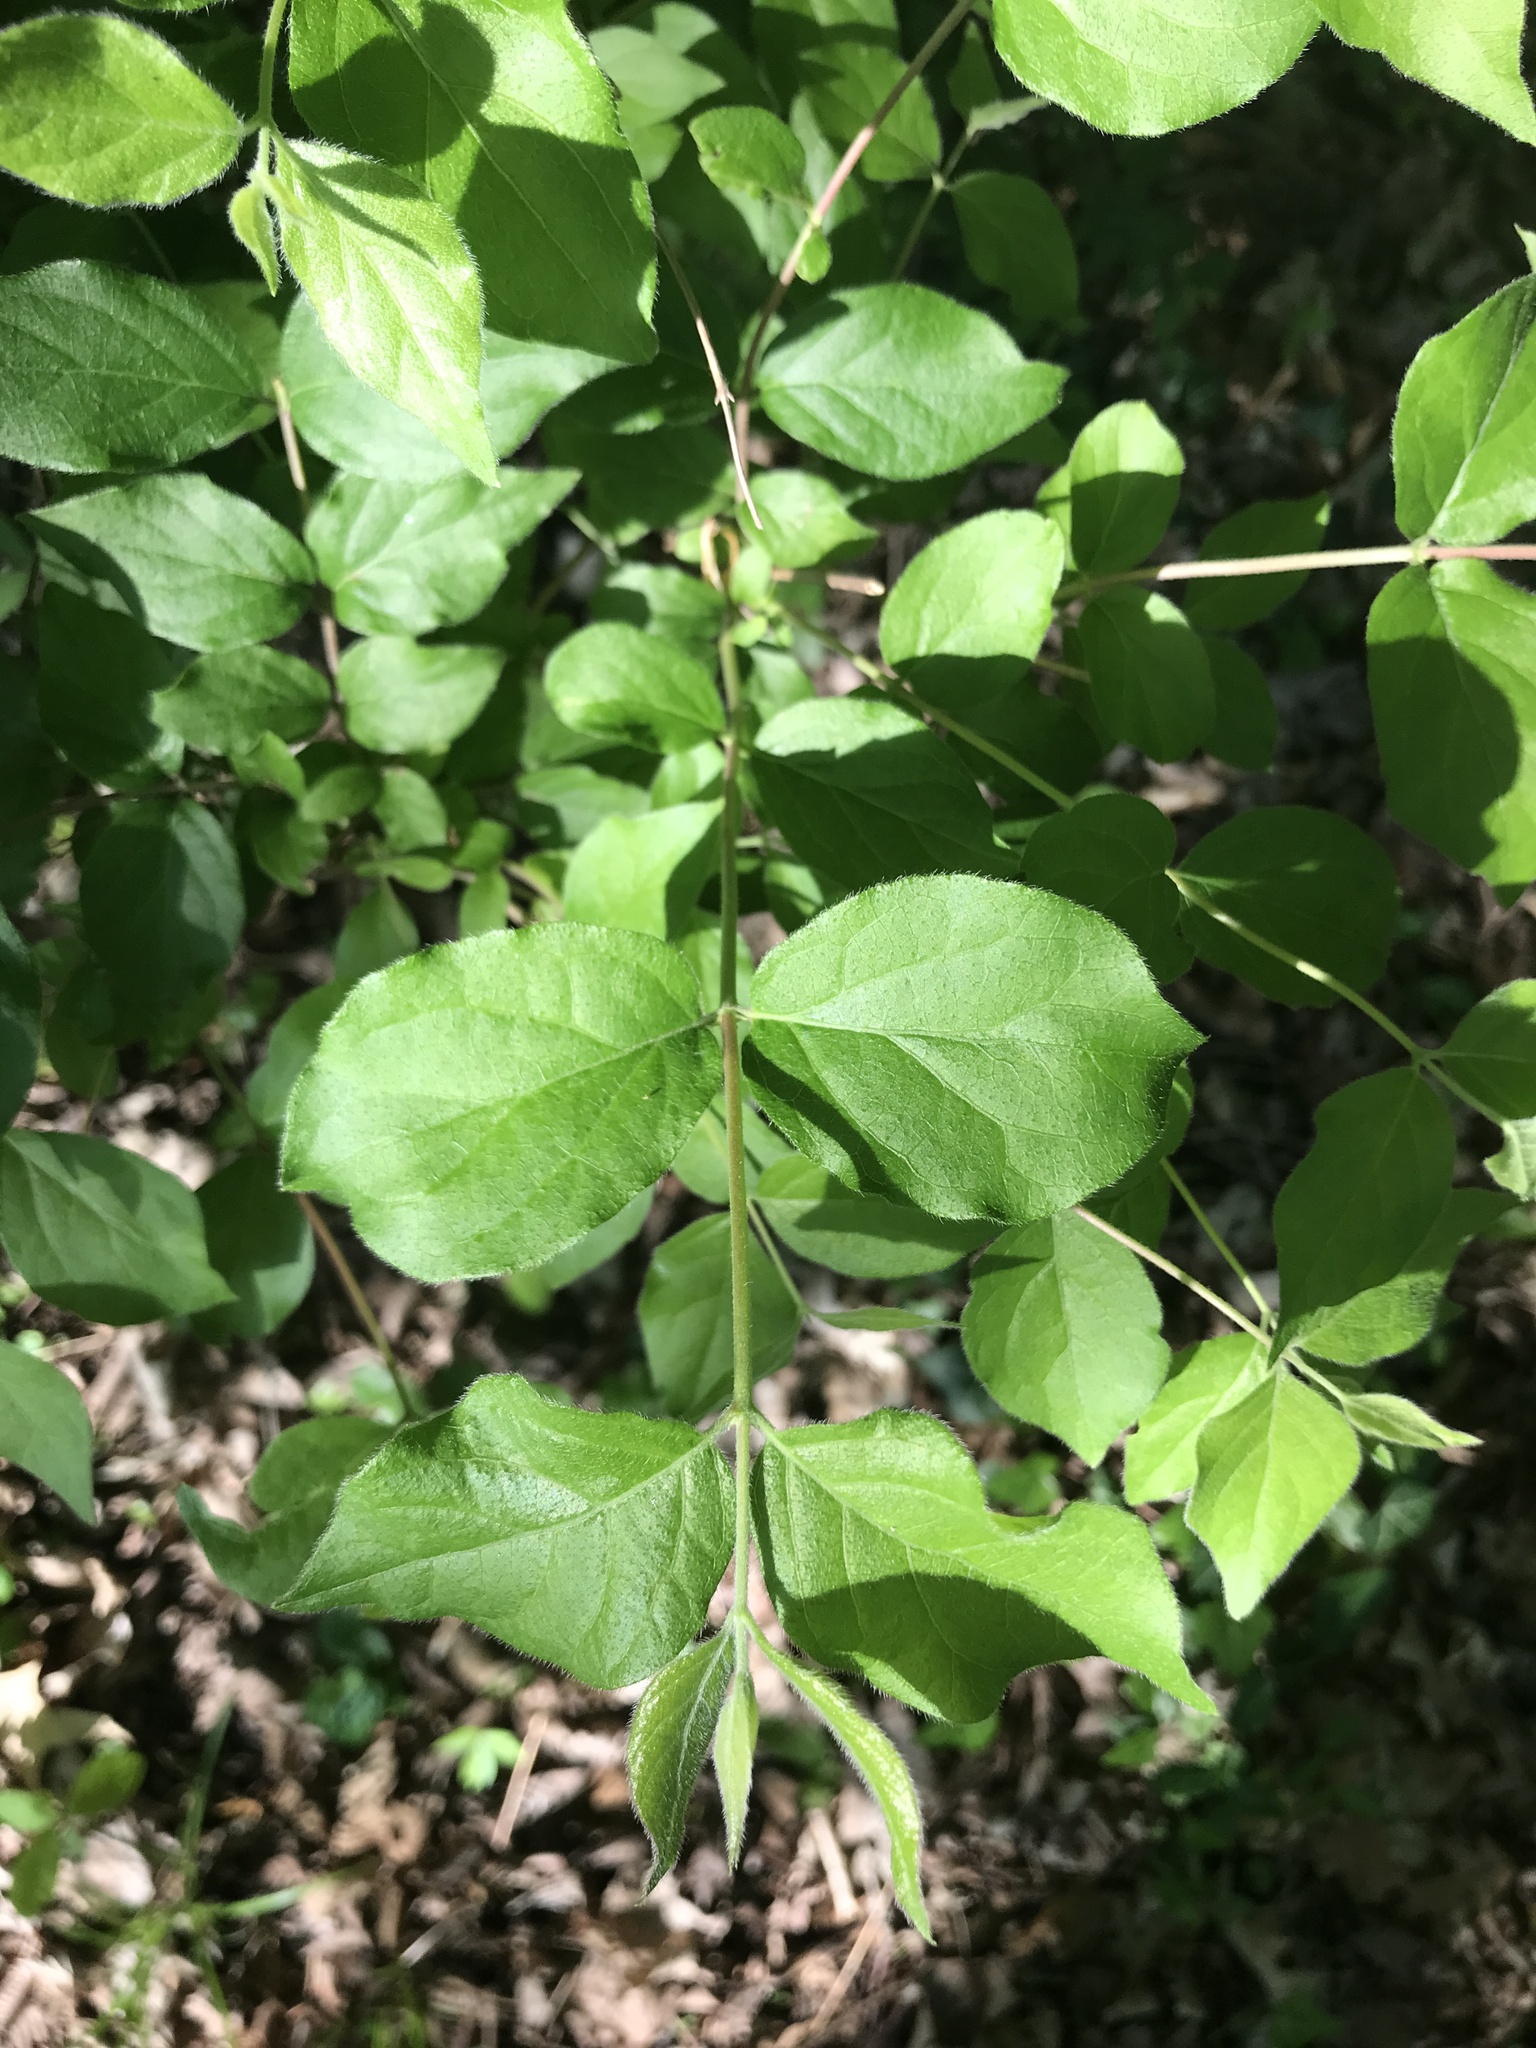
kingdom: Plantae
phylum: Tracheophyta
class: Magnoliopsida
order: Dipsacales
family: Caprifoliaceae
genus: Lonicera
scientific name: Lonicera maackii
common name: Amur honeysuckle
